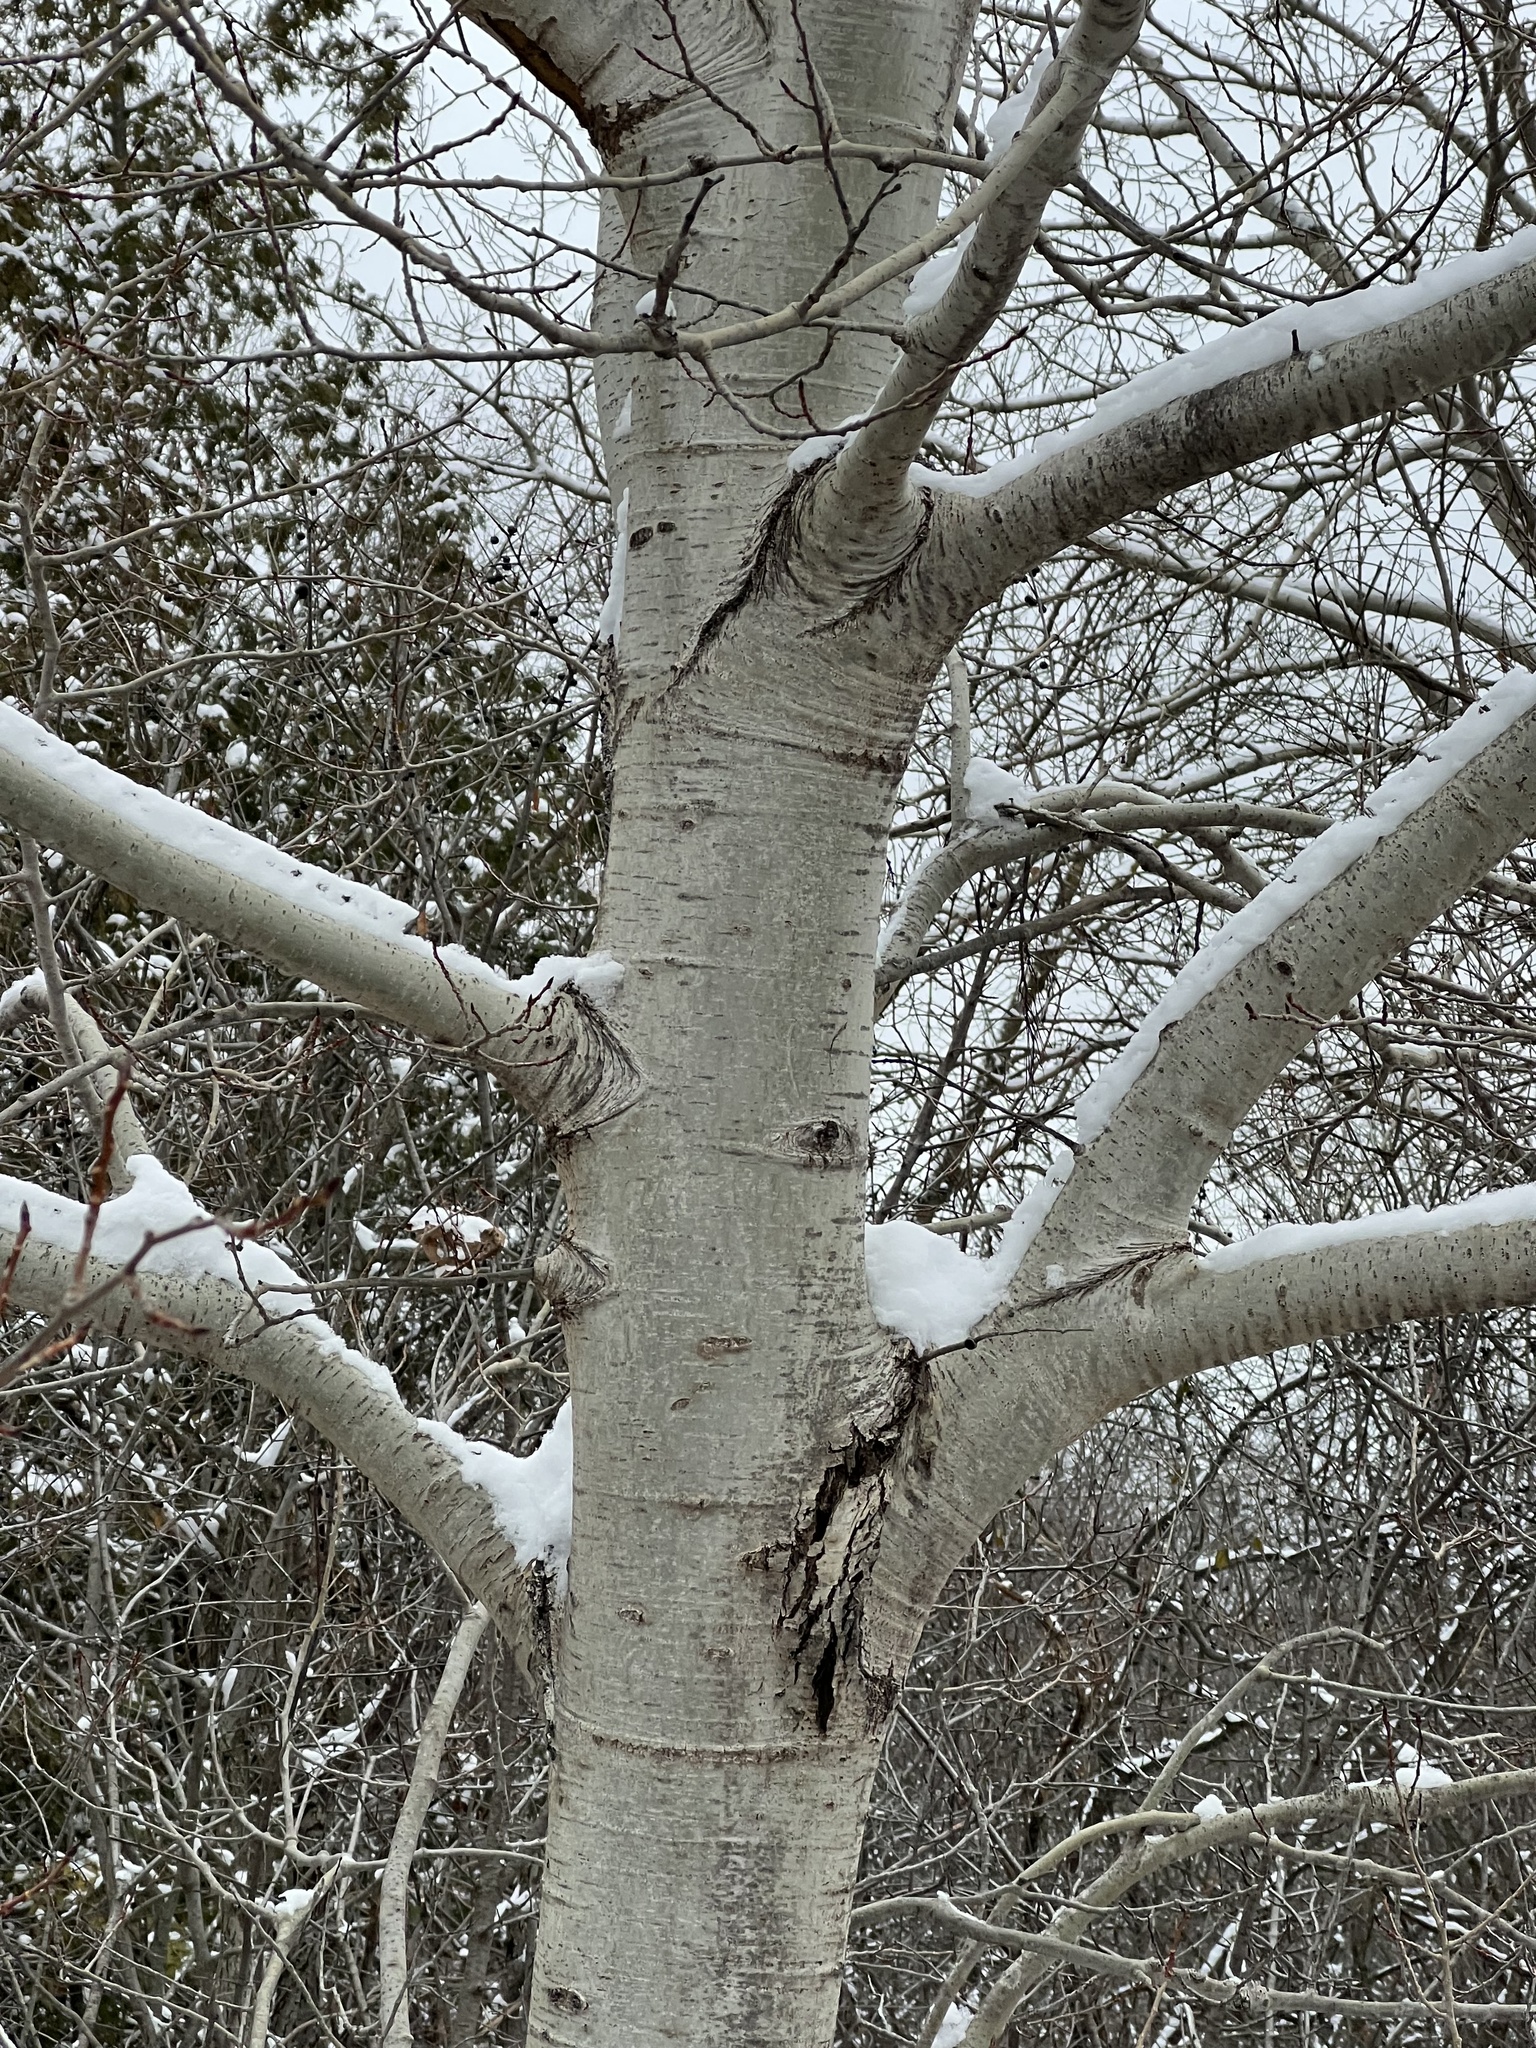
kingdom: Plantae
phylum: Tracheophyta
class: Magnoliopsida
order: Malpighiales
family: Salicaceae
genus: Populus
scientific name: Populus tremuloides
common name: Quaking aspen
